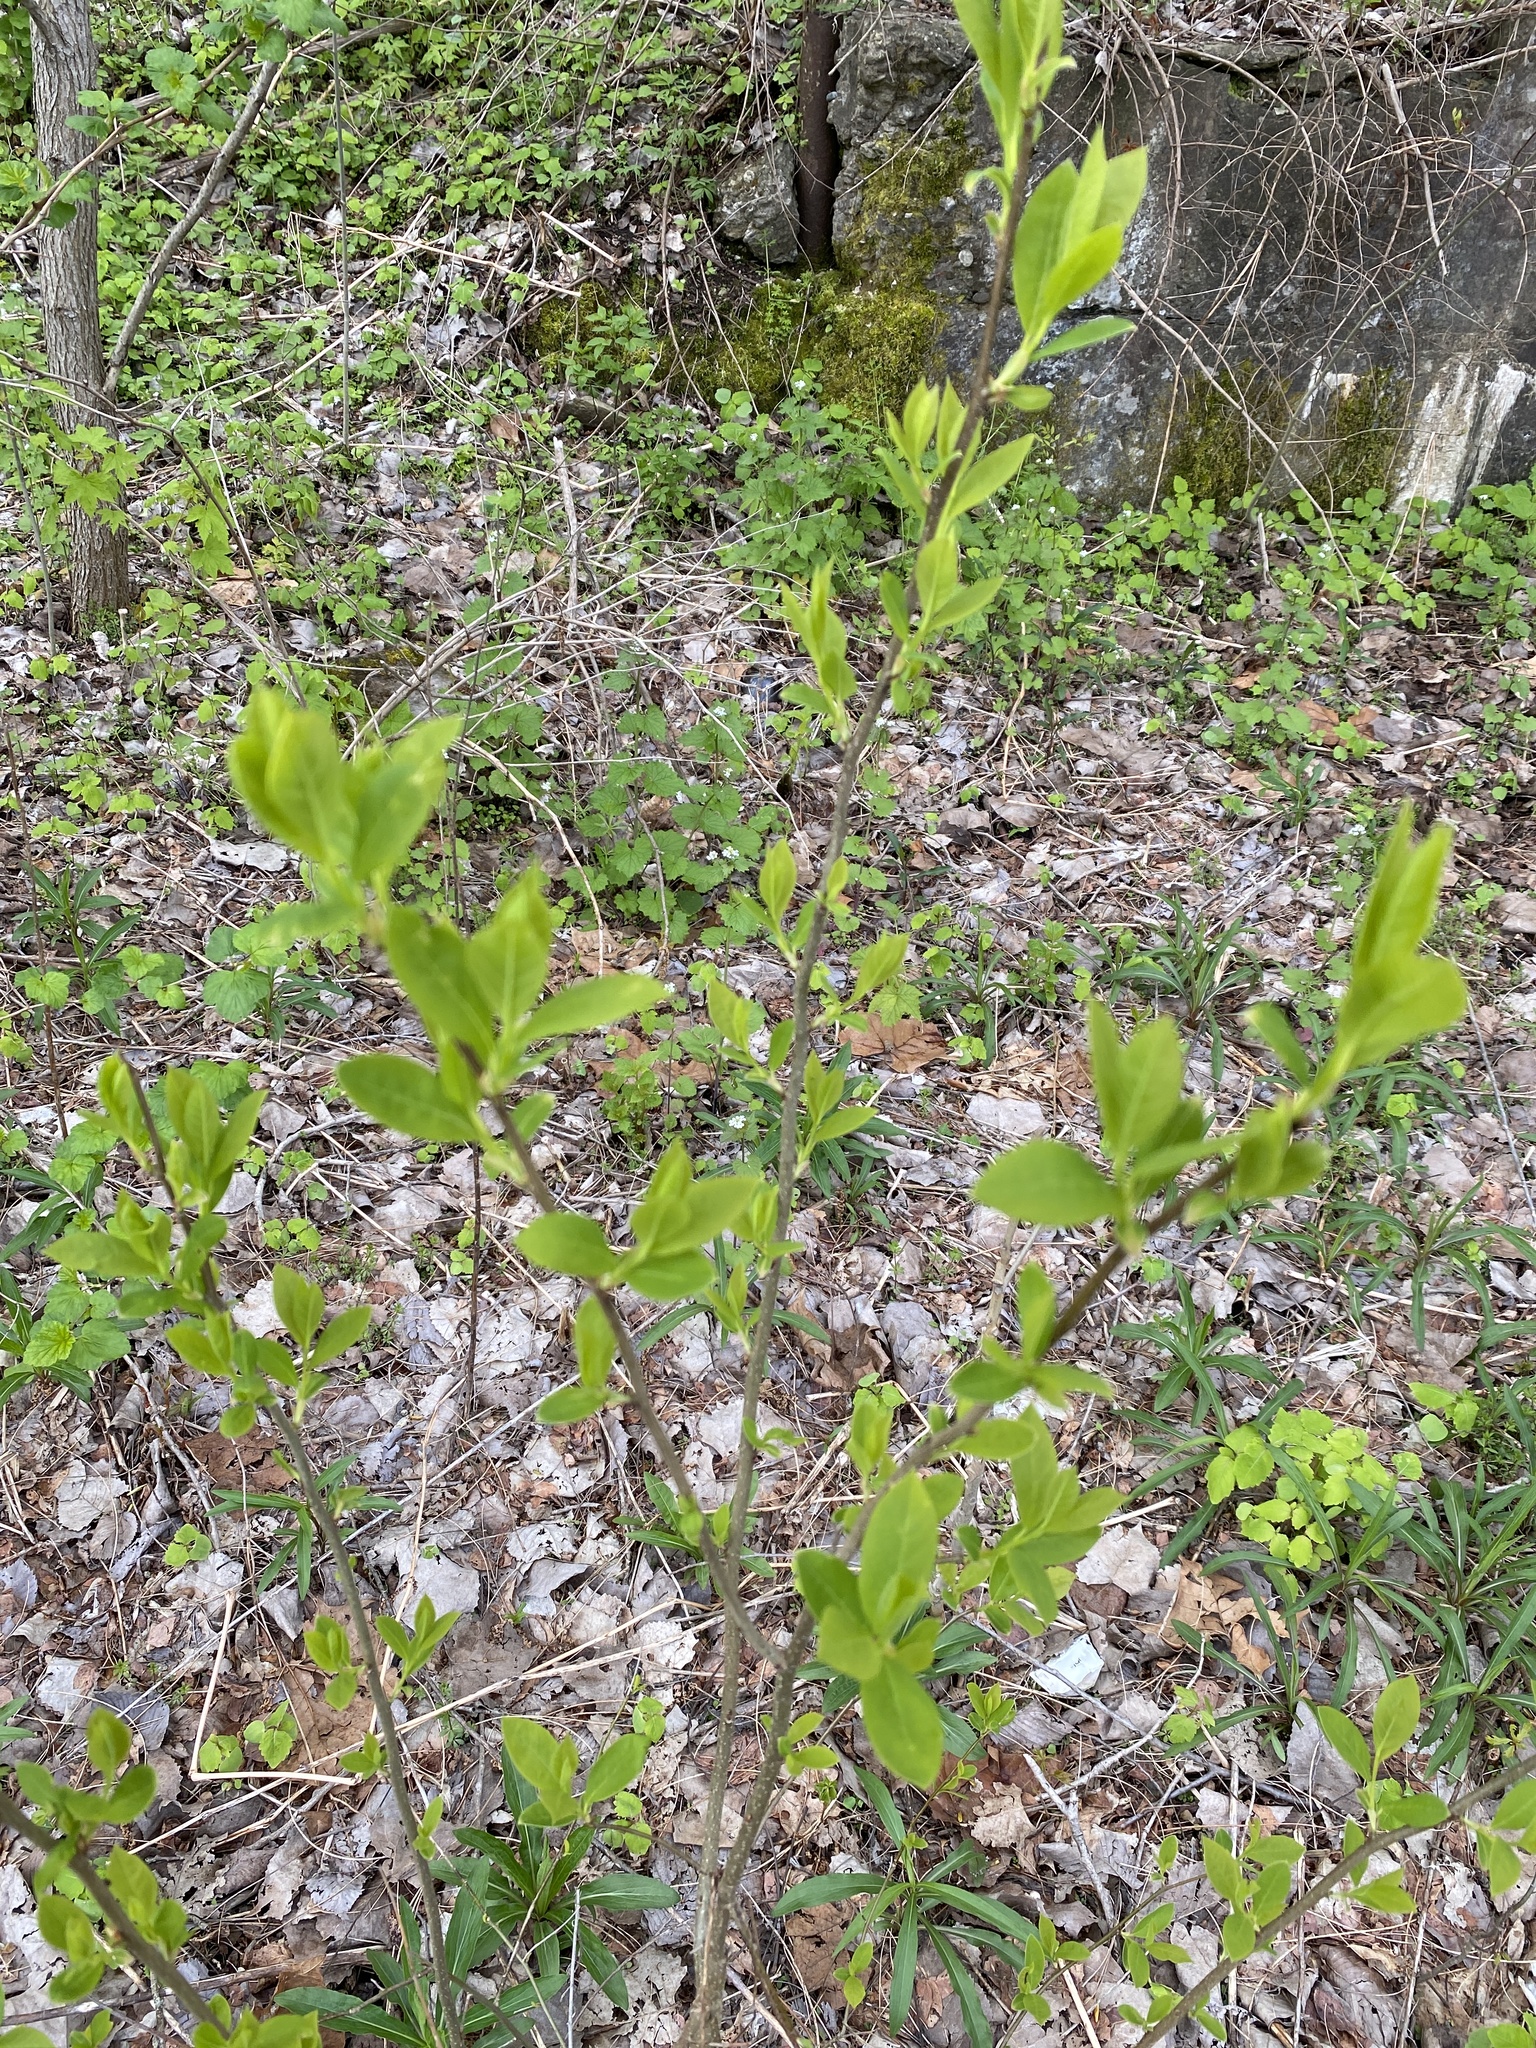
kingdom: Plantae
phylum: Tracheophyta
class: Magnoliopsida
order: Laurales
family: Lauraceae
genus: Lindera
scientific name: Lindera benzoin
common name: Spicebush
